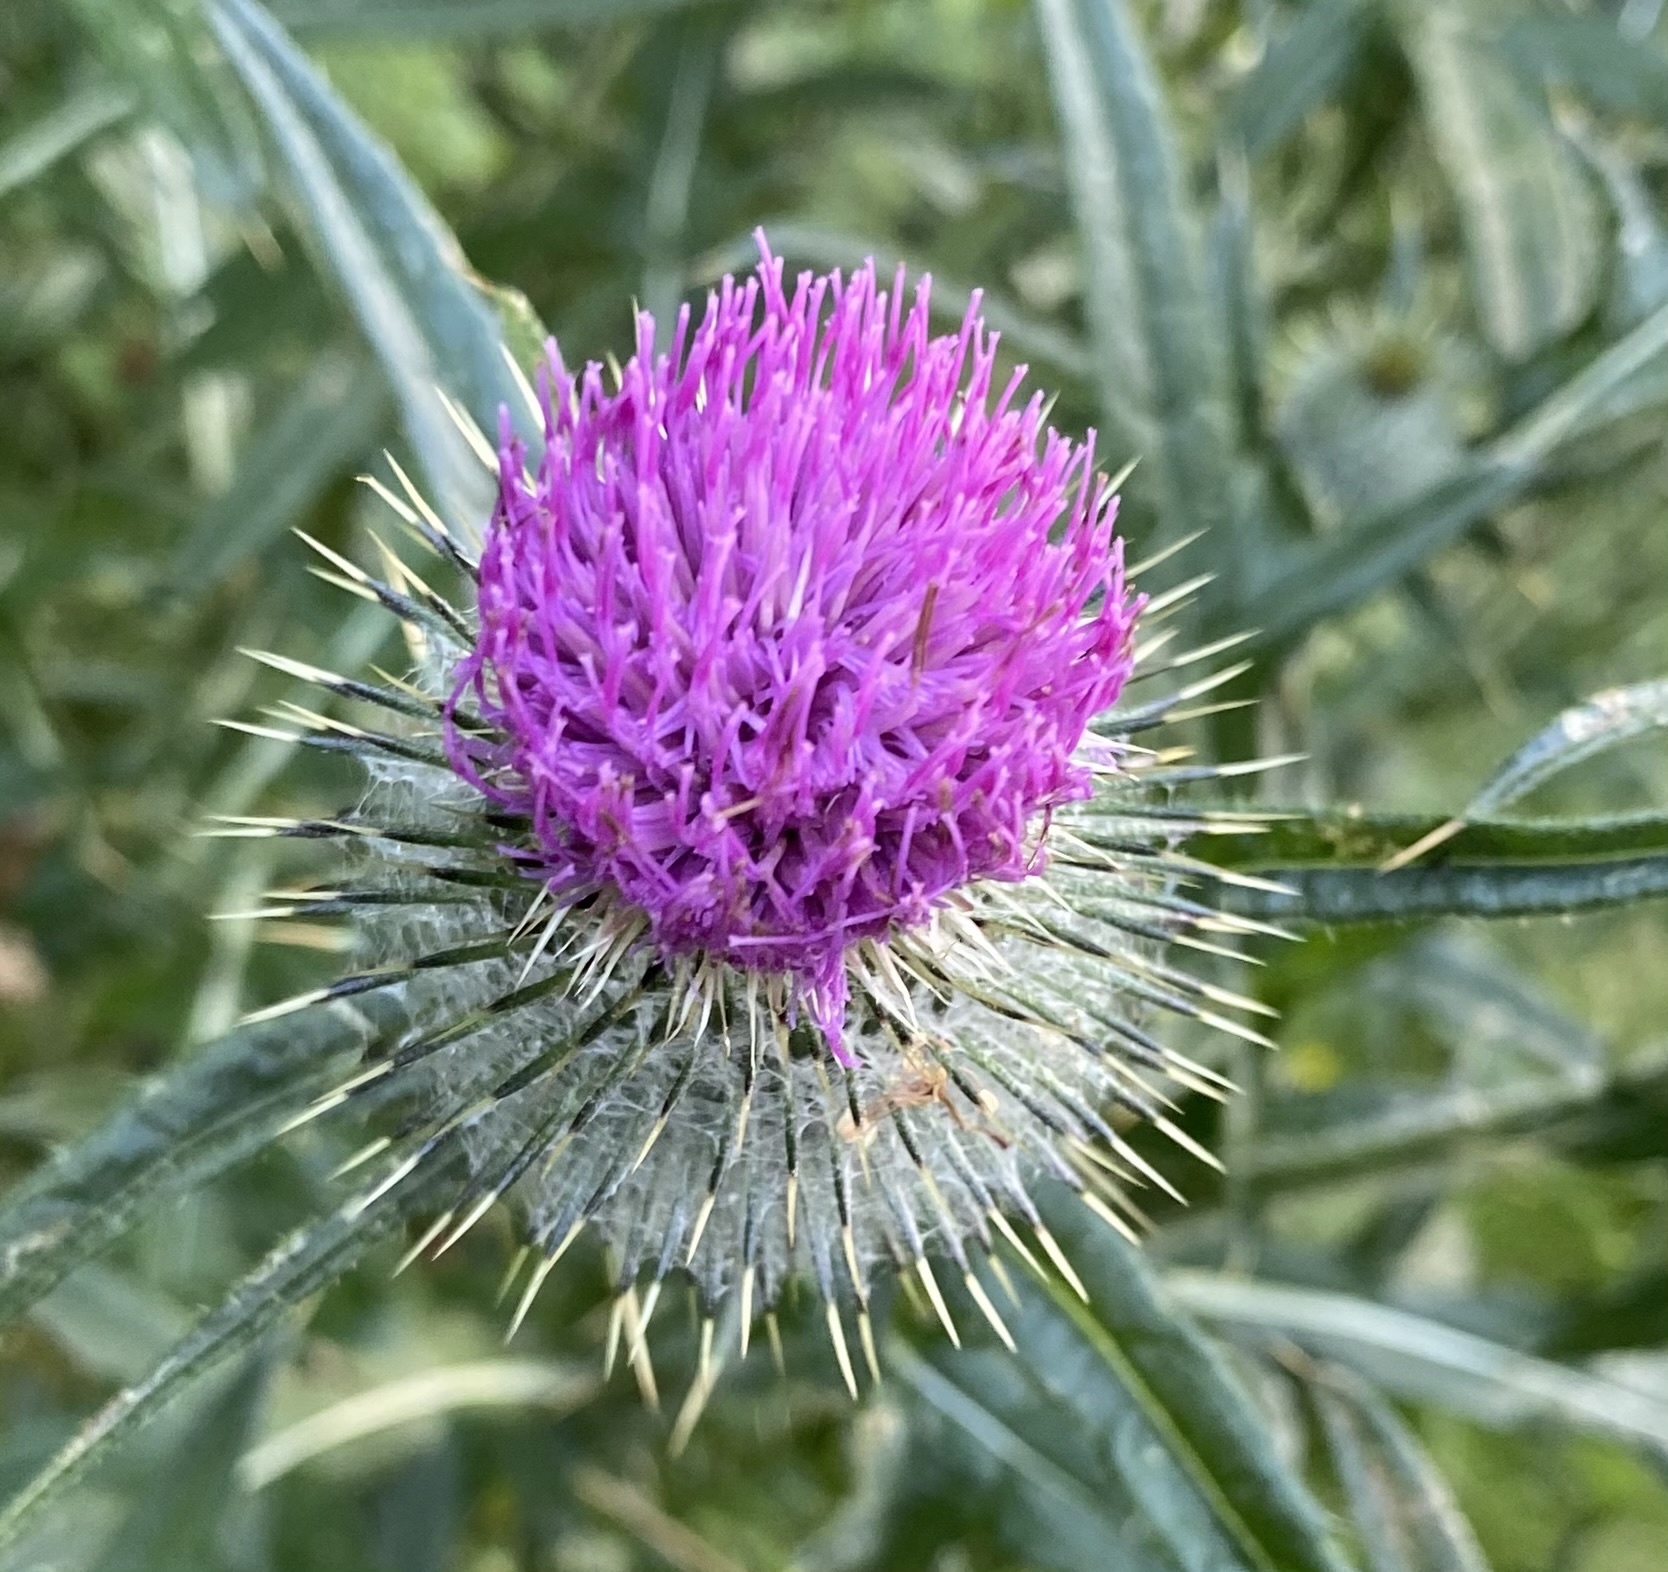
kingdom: Plantae
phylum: Tracheophyta
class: Magnoliopsida
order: Asterales
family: Asteraceae
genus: Cirsium
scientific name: Cirsium vulgare
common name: Bull thistle
